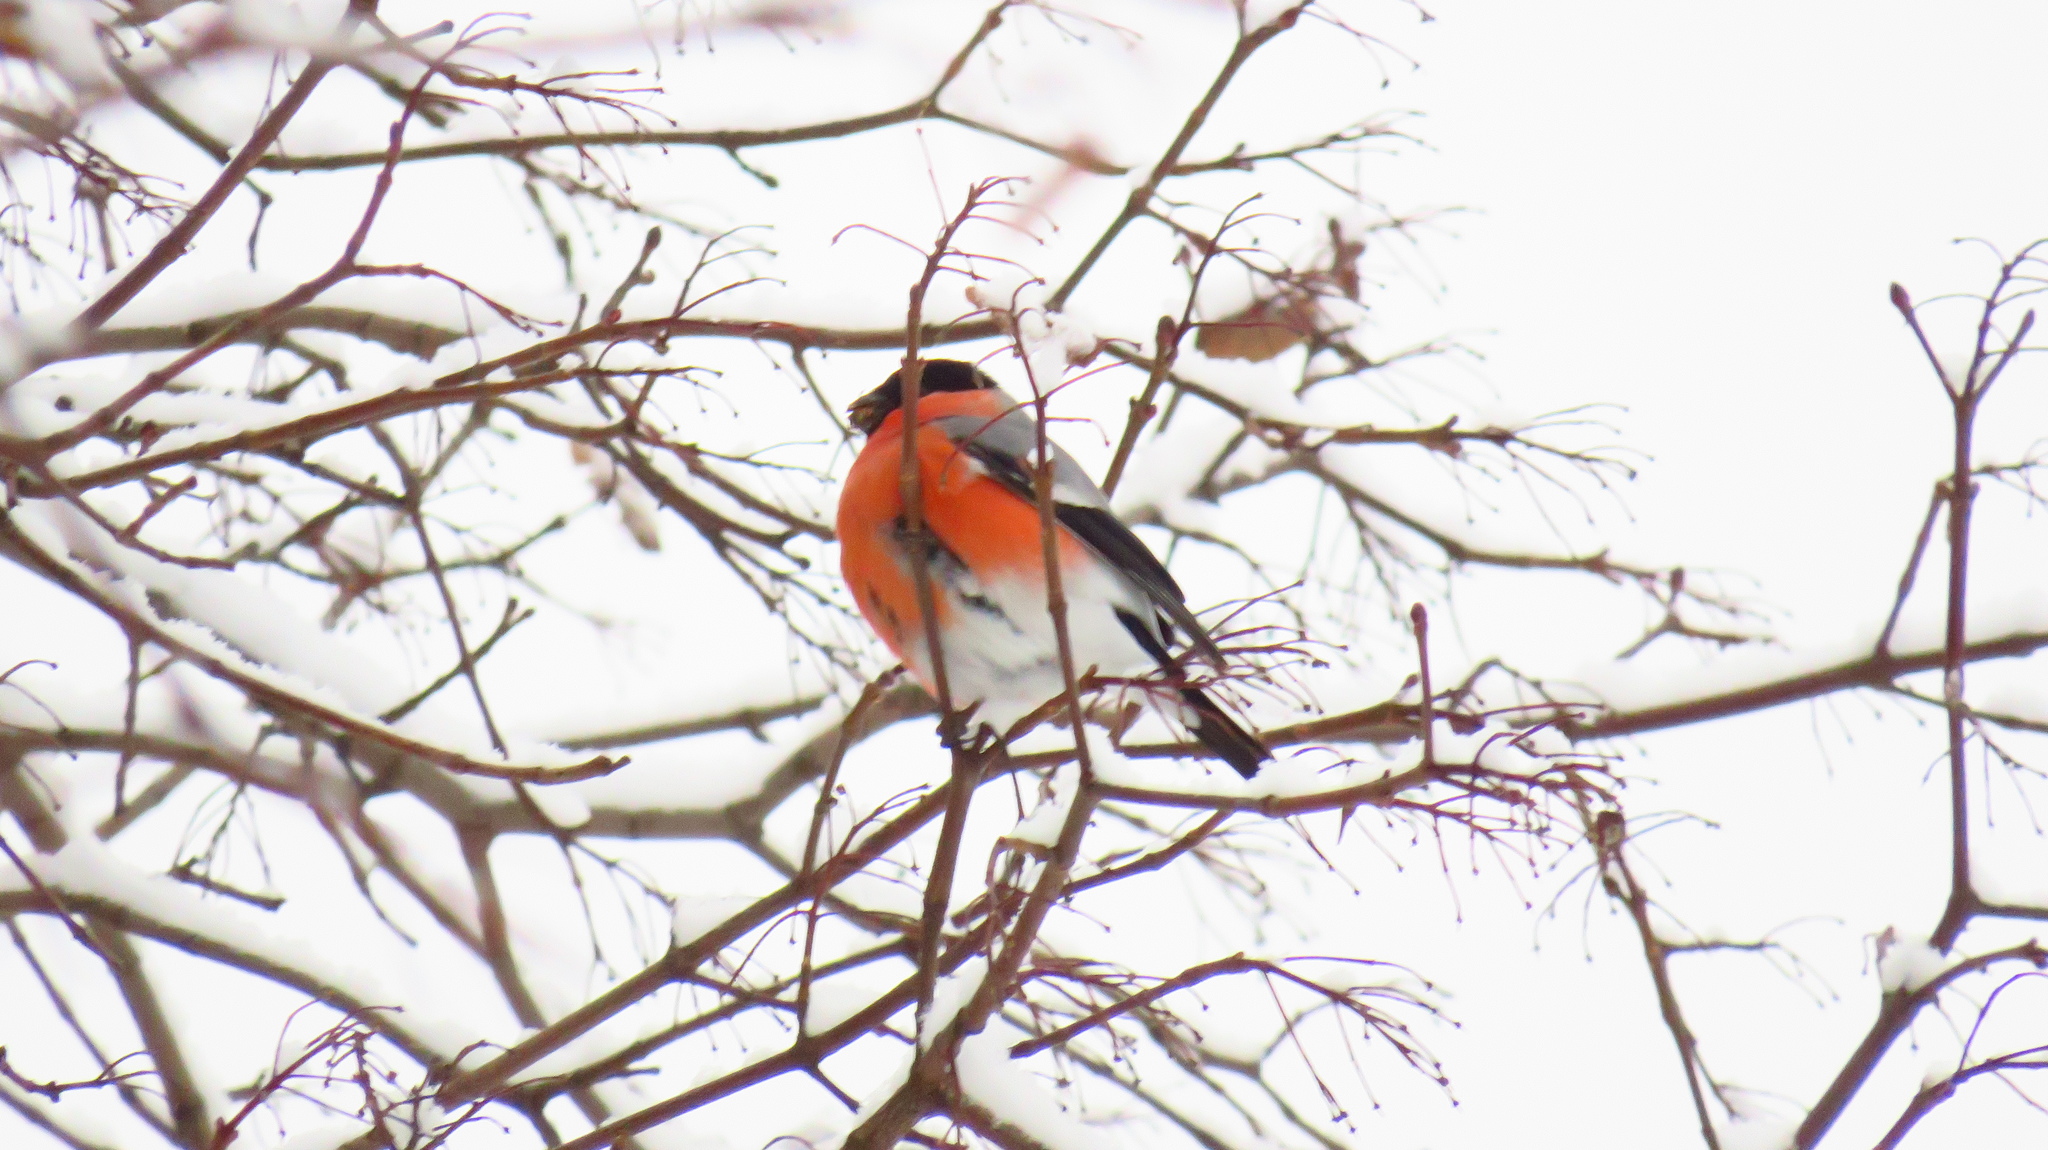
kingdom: Animalia
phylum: Chordata
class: Aves
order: Passeriformes
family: Fringillidae
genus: Pyrrhula
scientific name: Pyrrhula pyrrhula
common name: Eurasian bullfinch
